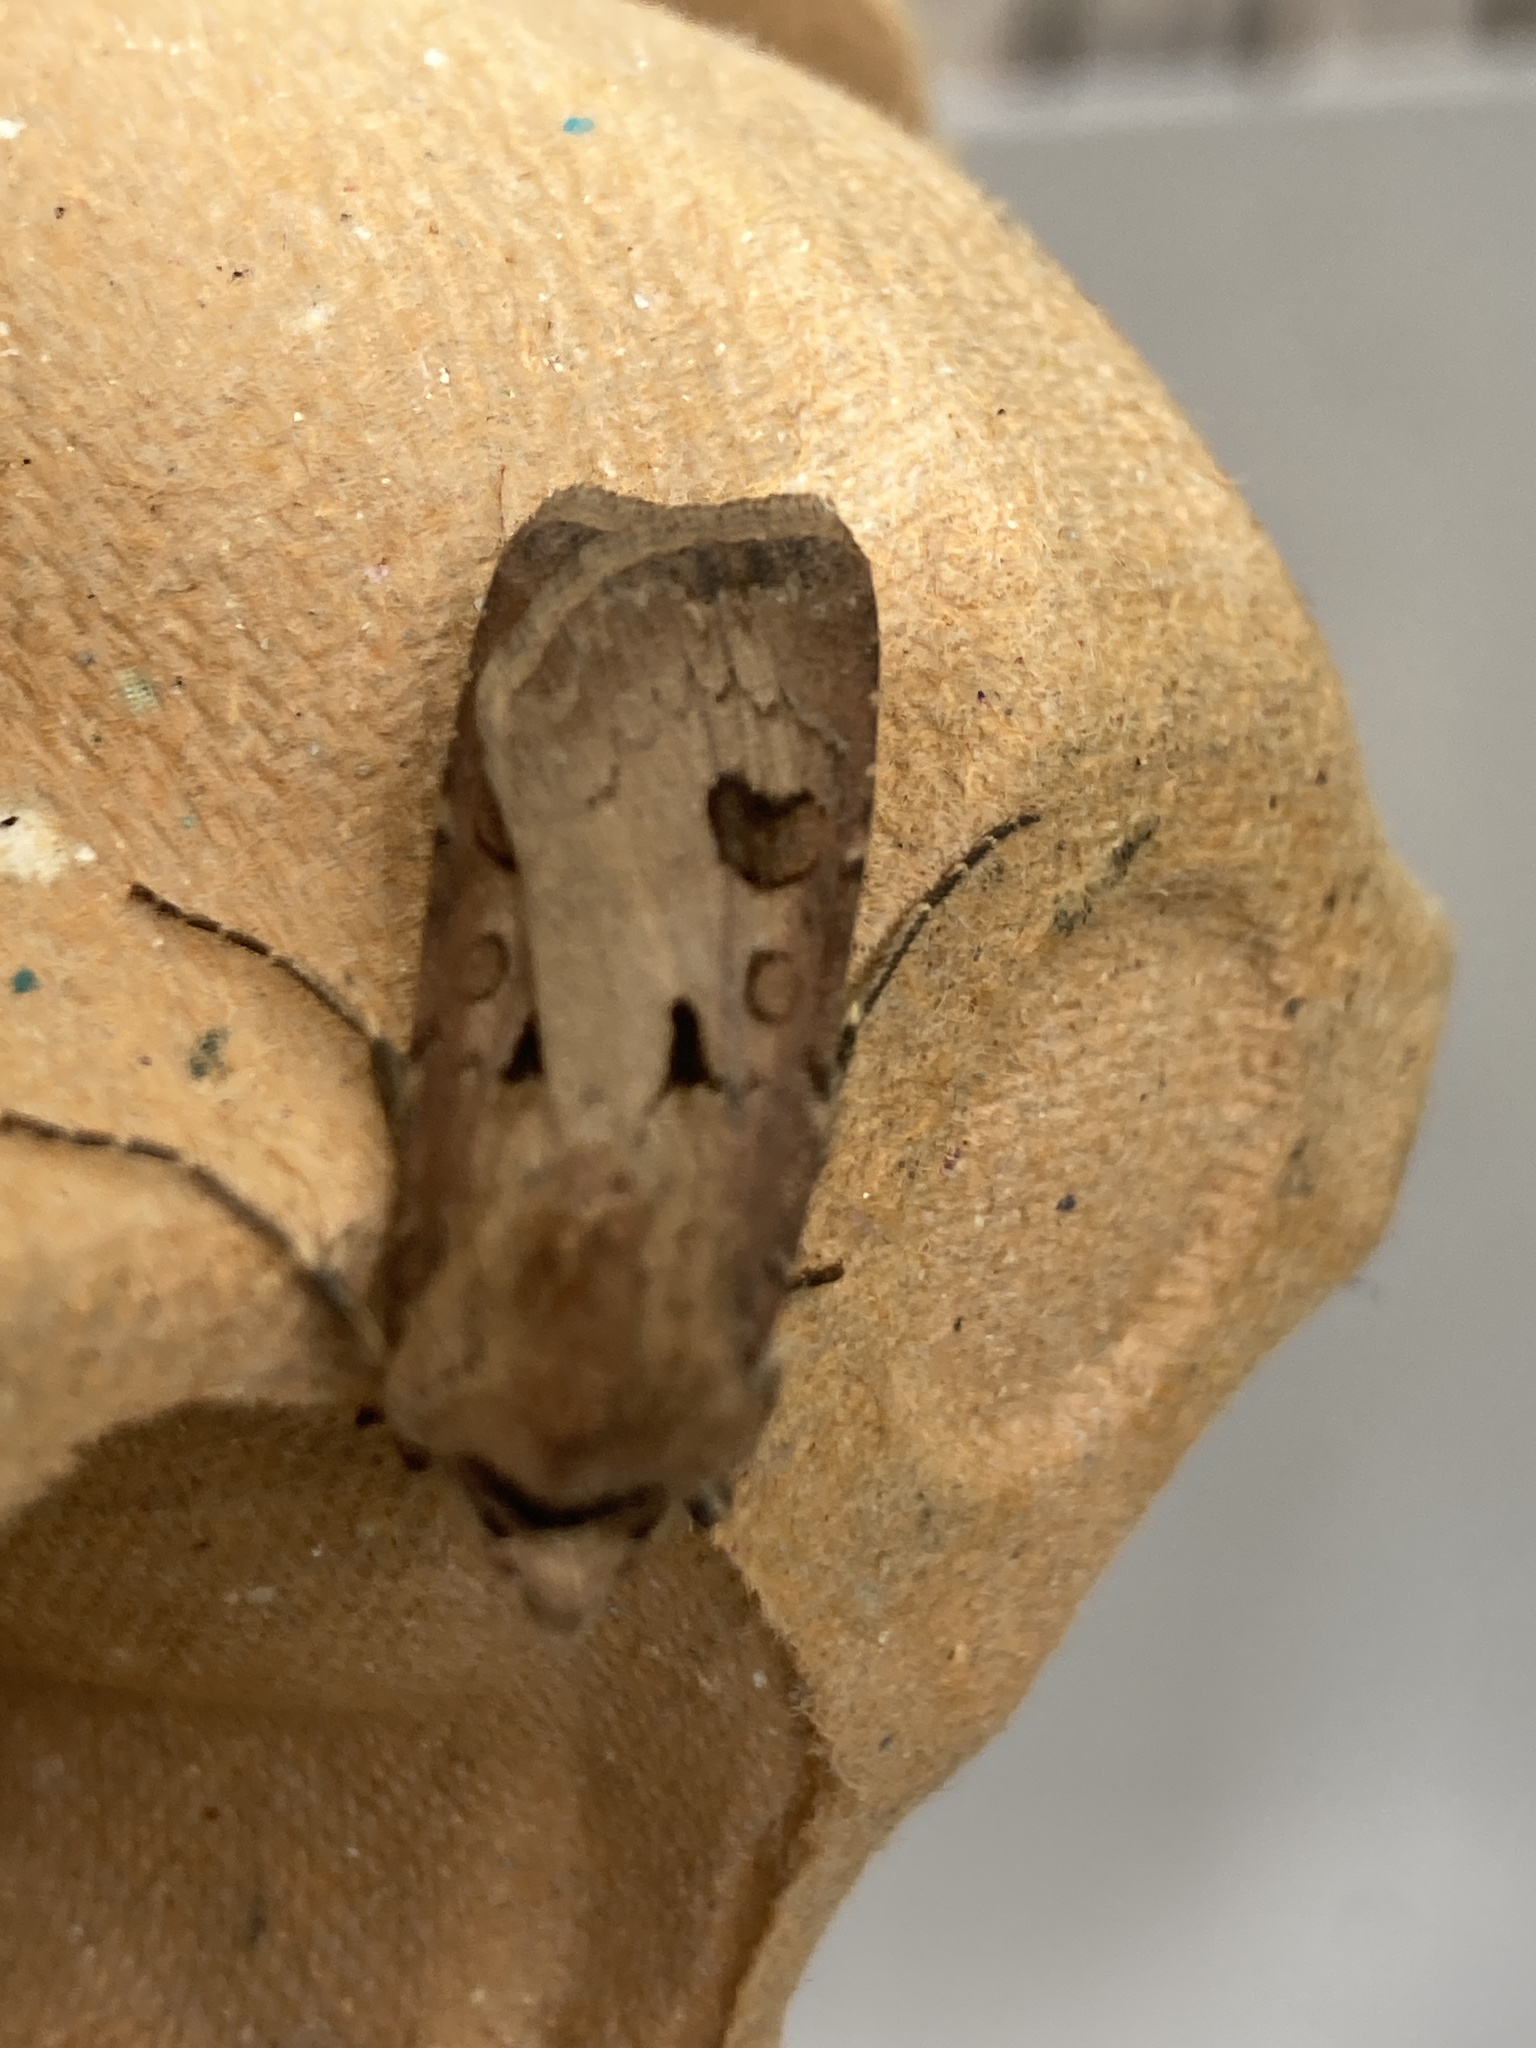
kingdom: Animalia
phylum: Arthropoda
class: Insecta
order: Lepidoptera
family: Noctuidae
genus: Agrotis
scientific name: Agrotis exclamationis
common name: Heart and dart
